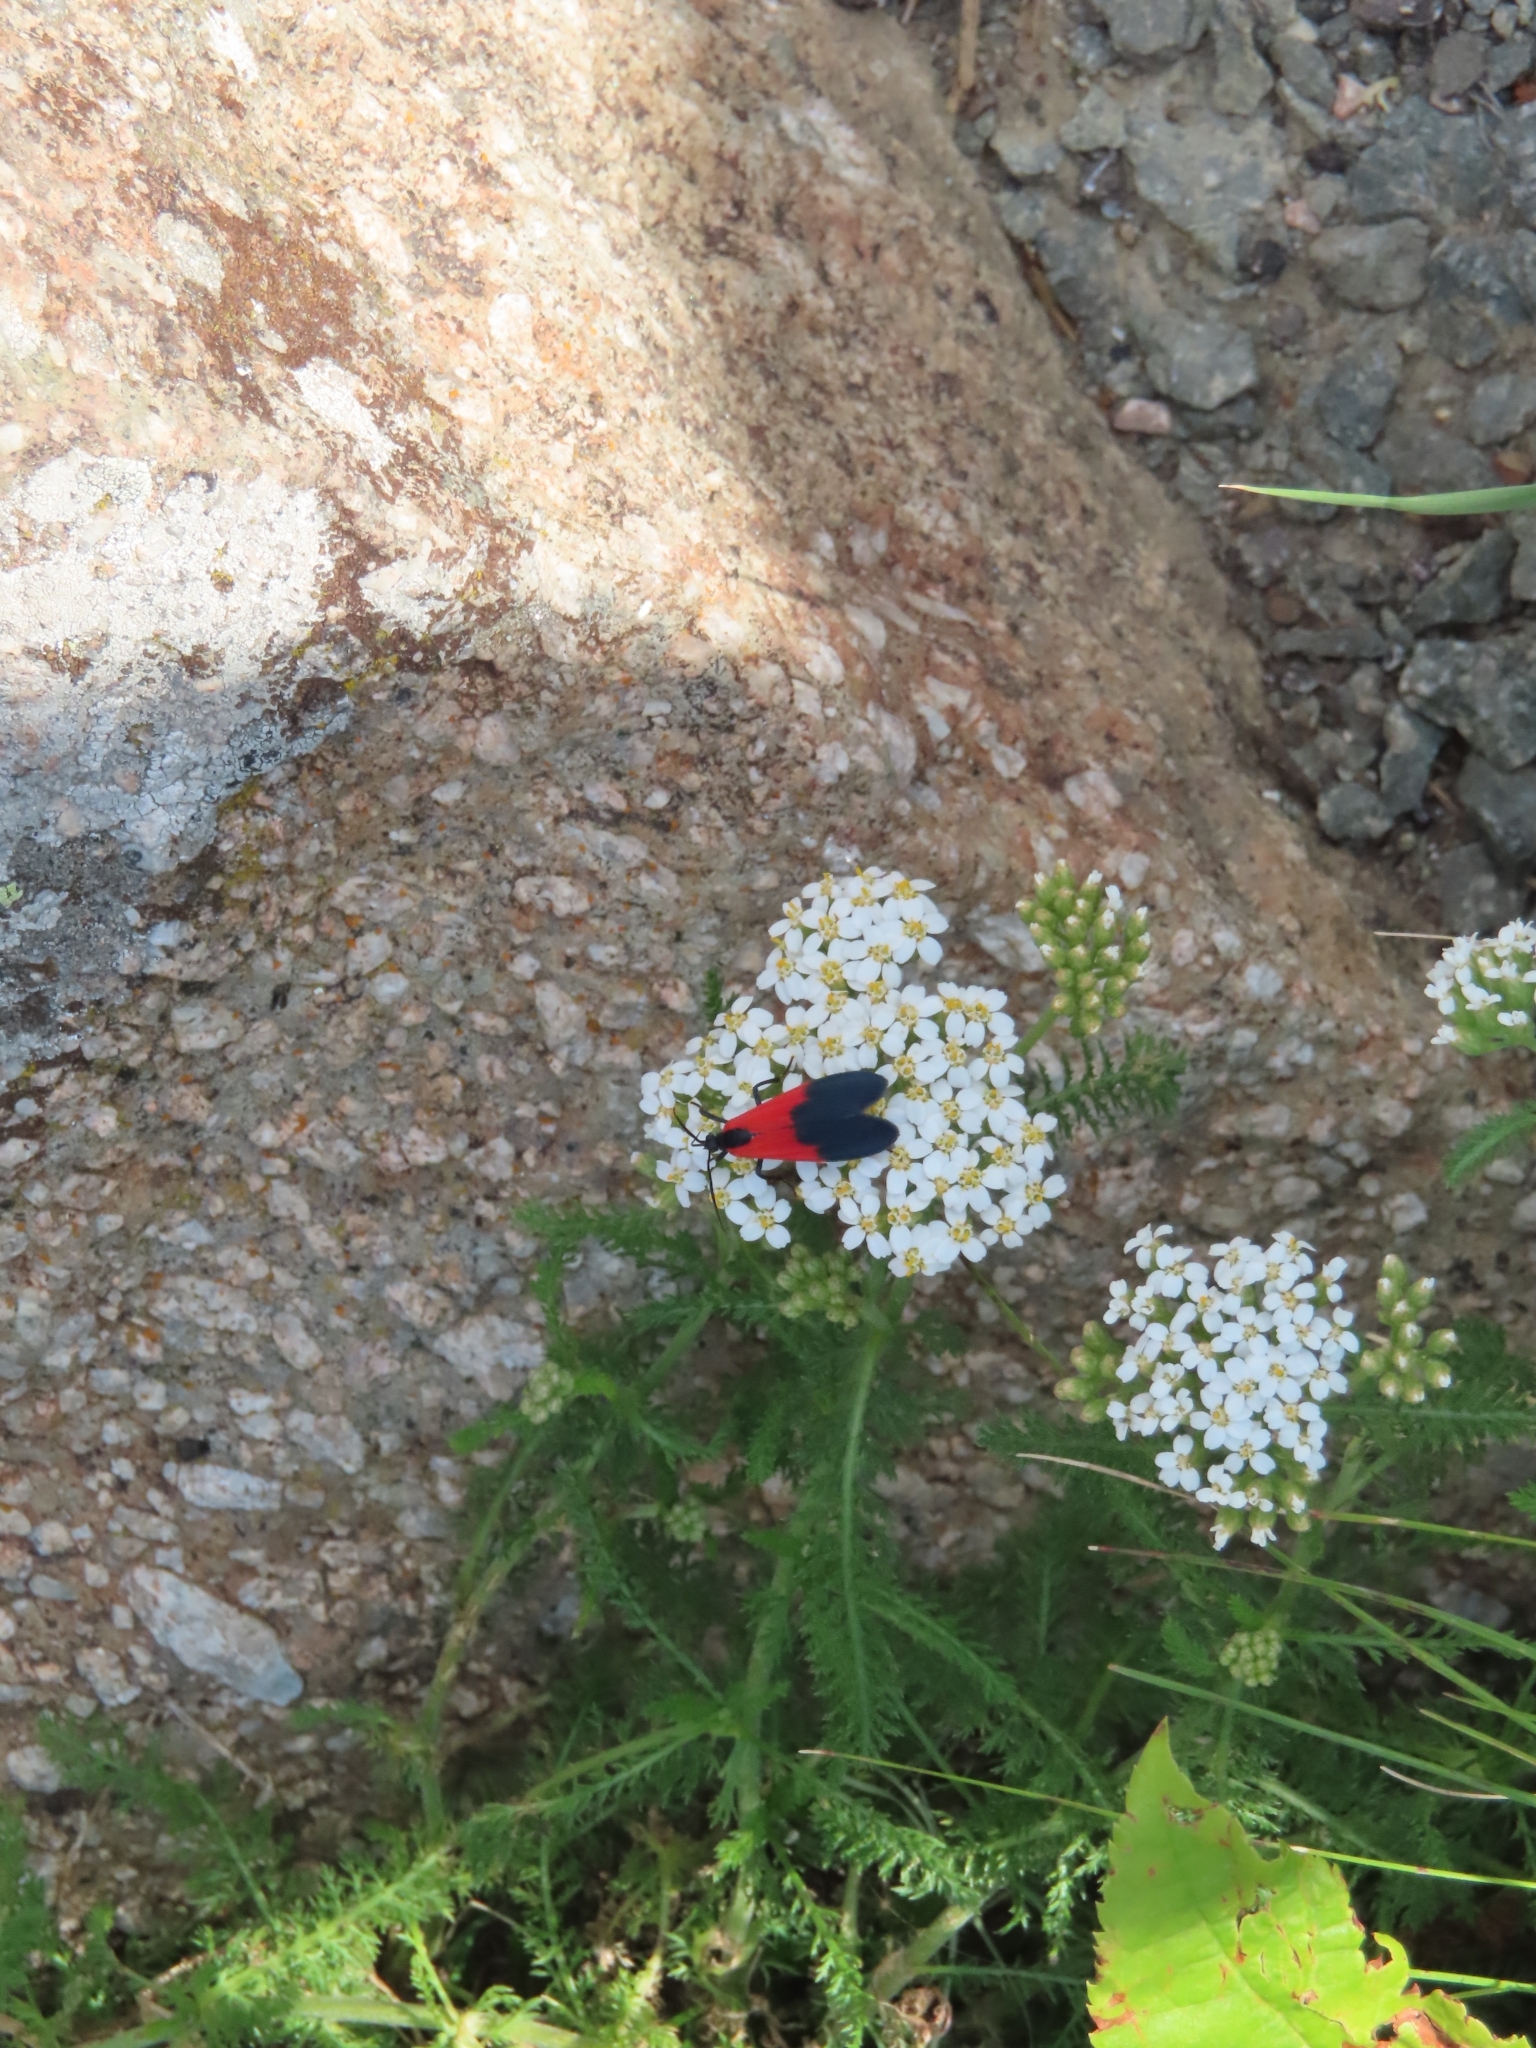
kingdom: Animalia
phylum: Arthropoda
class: Insecta
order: Lepidoptera
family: Erebidae
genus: Lycomorpha
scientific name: Lycomorpha pholus
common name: Black-and-yellow lichen moth
